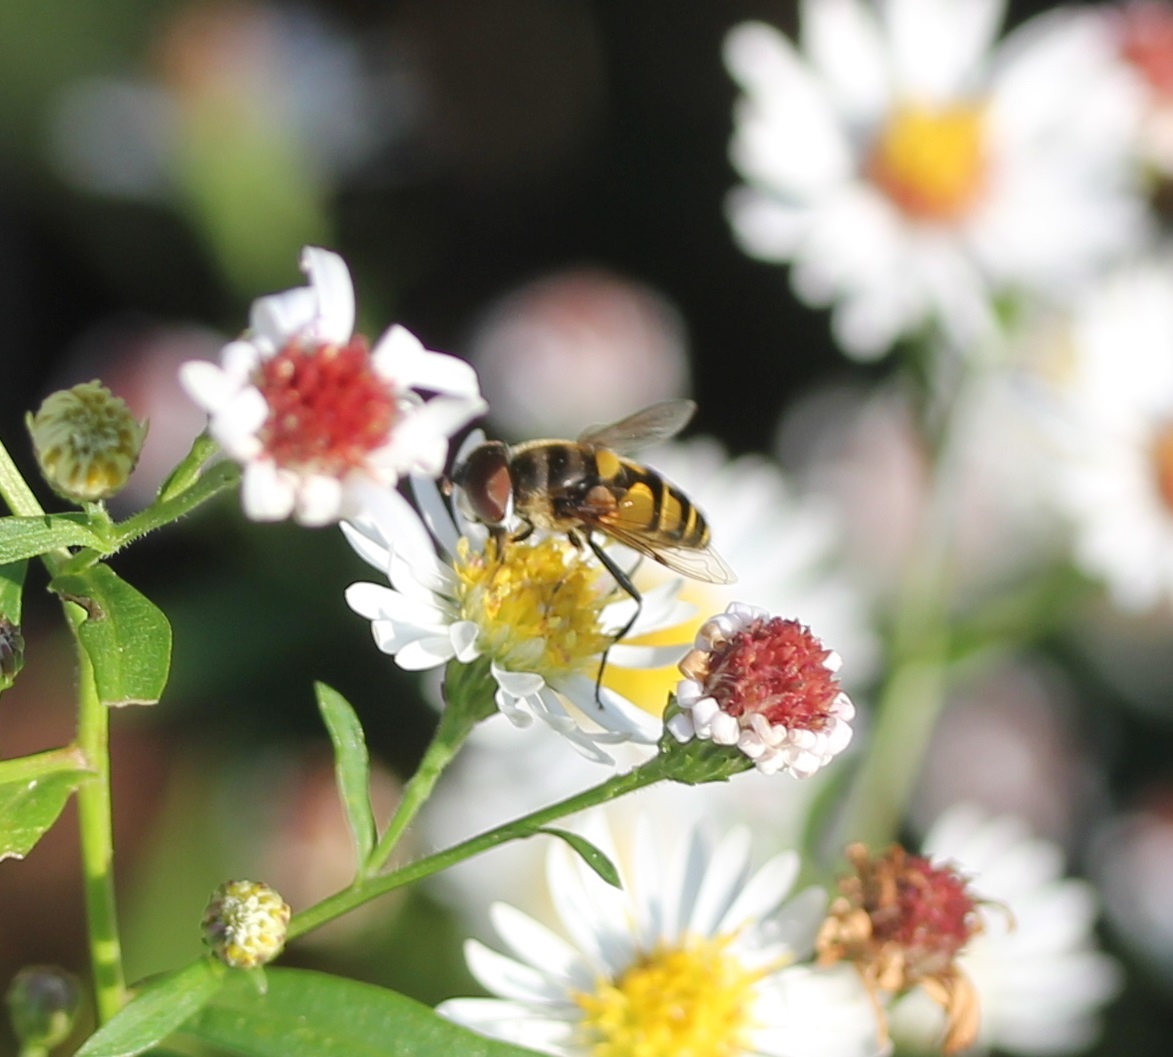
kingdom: Animalia
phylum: Arthropoda
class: Insecta
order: Diptera
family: Syrphidae
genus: Eristalis
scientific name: Eristalis transversa
